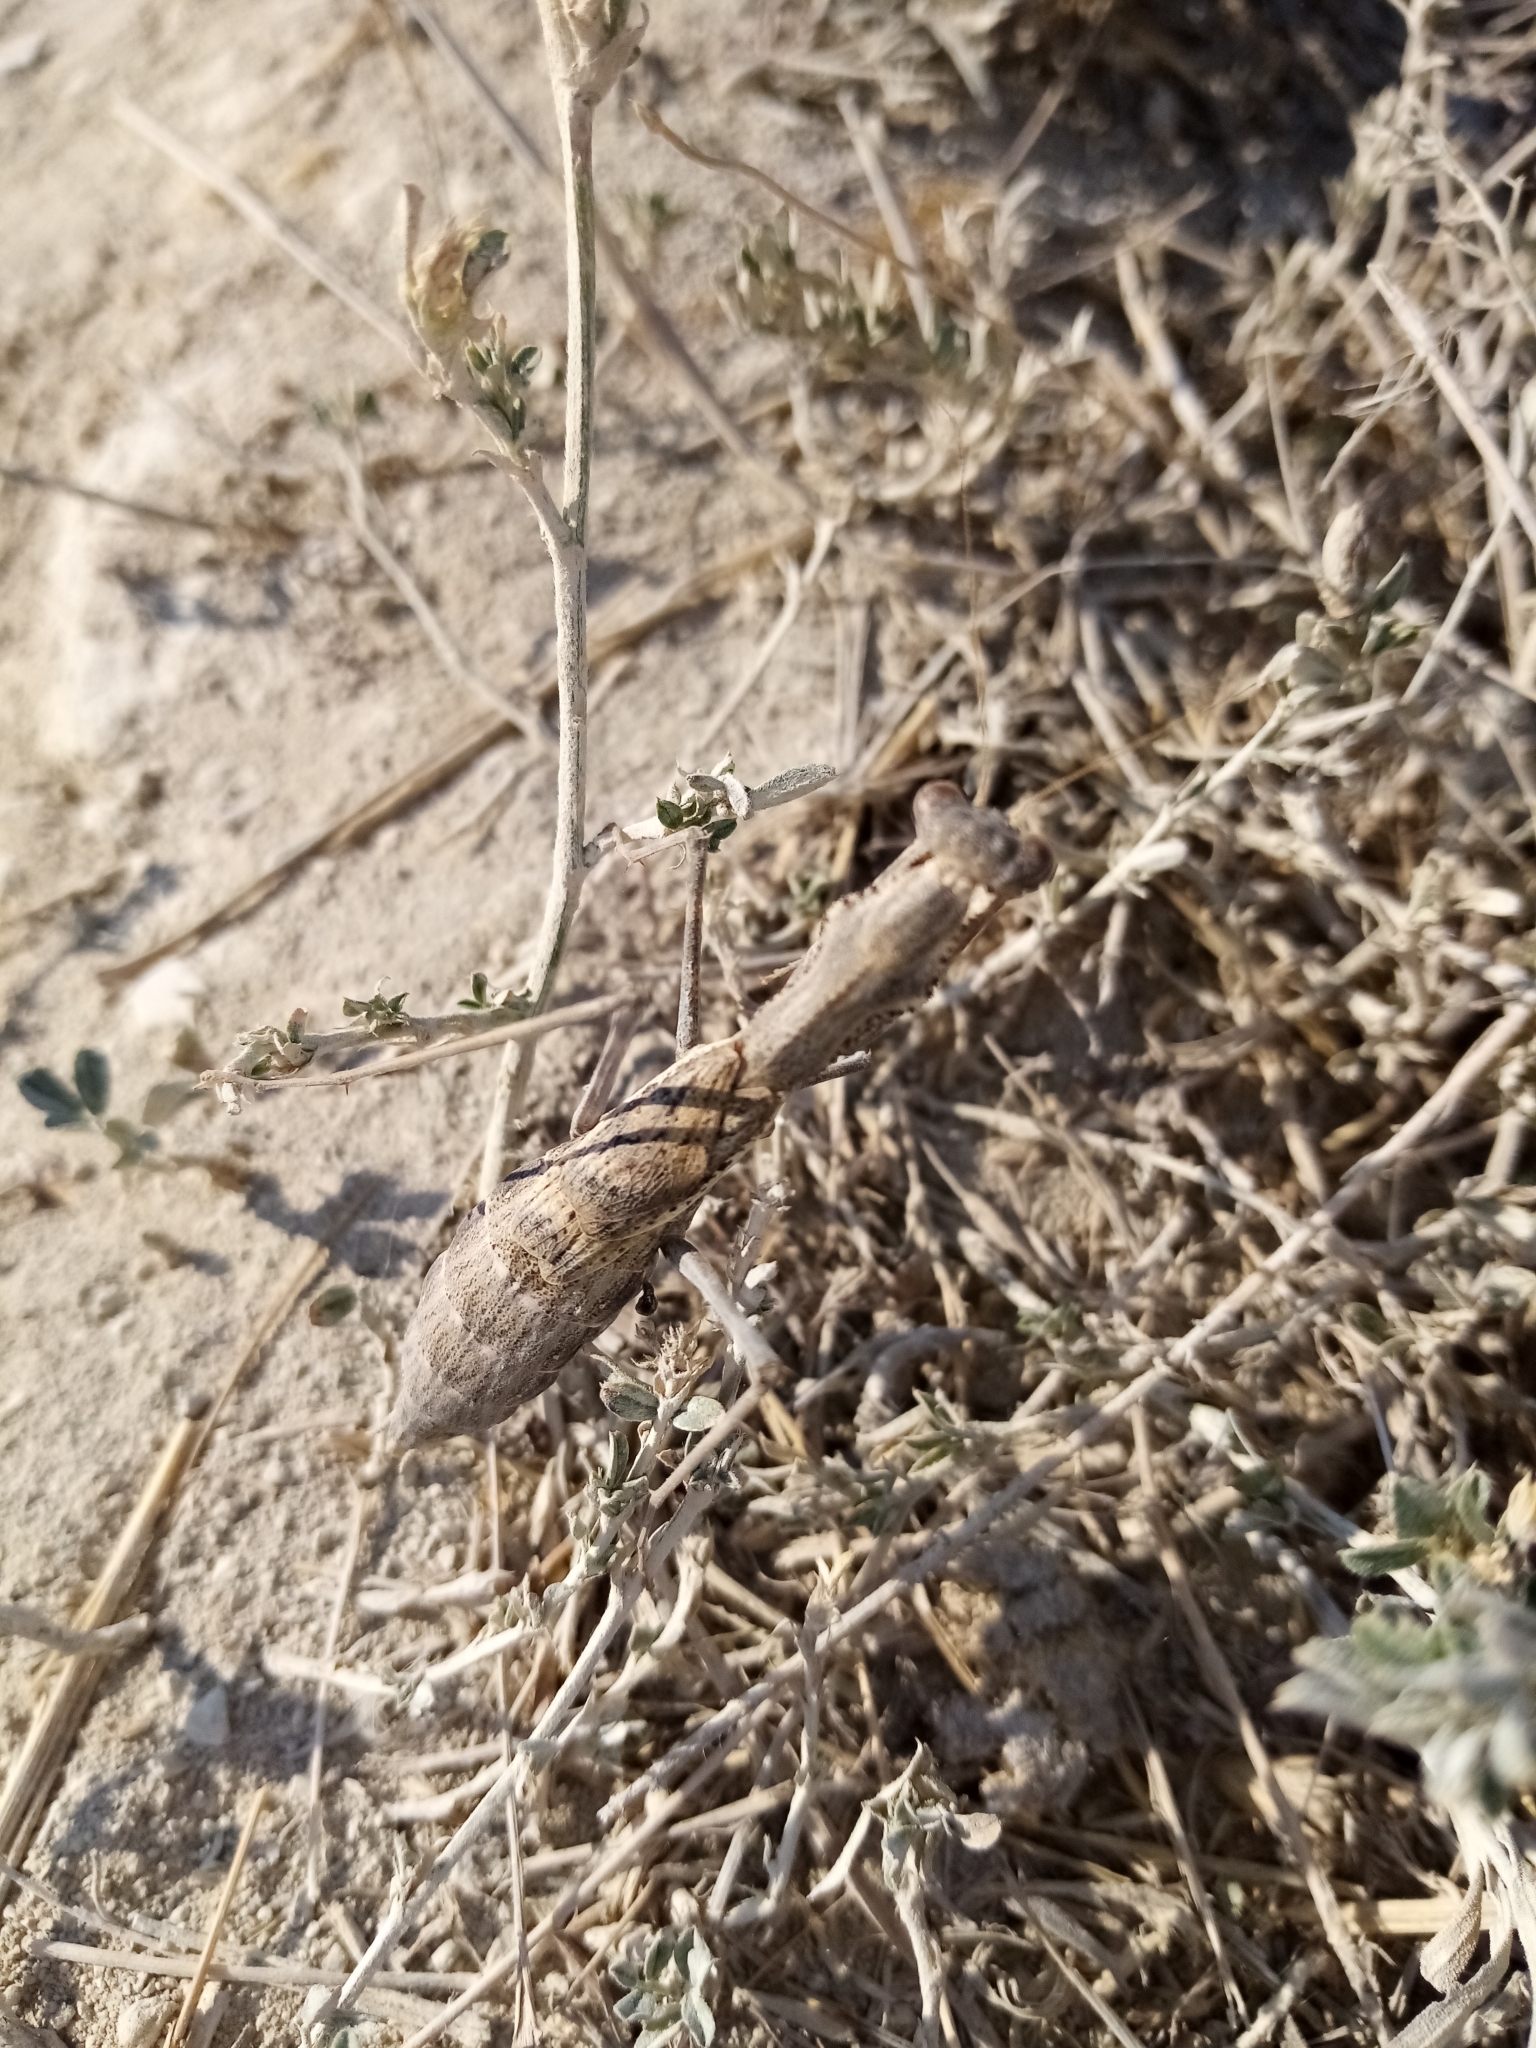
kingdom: Animalia
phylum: Arthropoda
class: Insecta
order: Mantodea
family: Rivetinidae
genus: Bolivaria
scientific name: Bolivaria brachyptera
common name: Bolivar's short winged mantis
